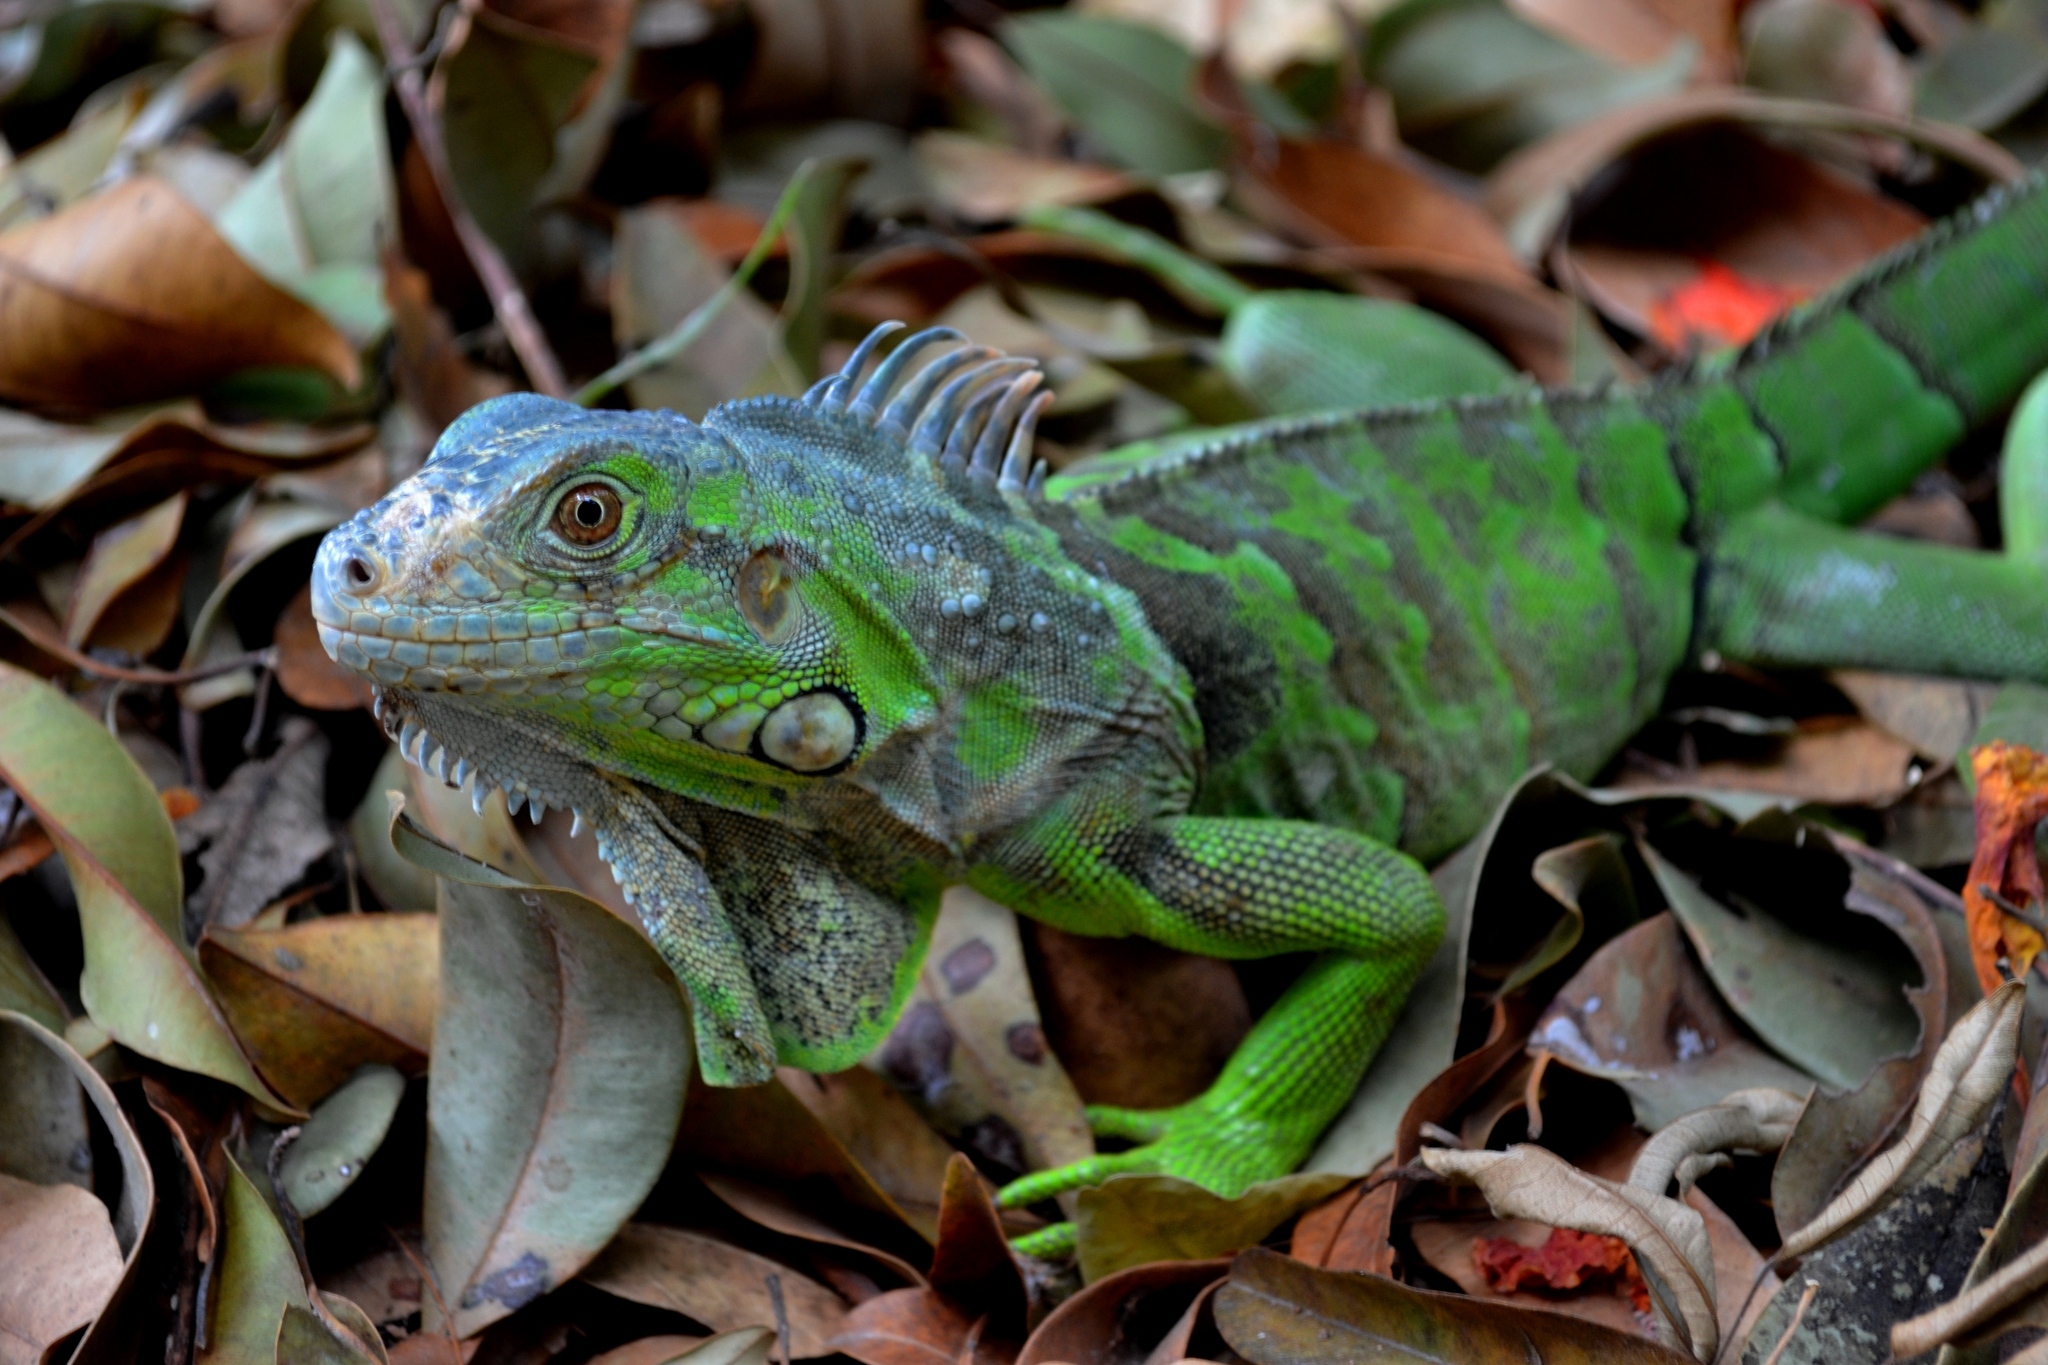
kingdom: Animalia
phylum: Chordata
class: Squamata
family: Iguanidae
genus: Iguana
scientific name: Iguana iguana
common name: Green iguana
